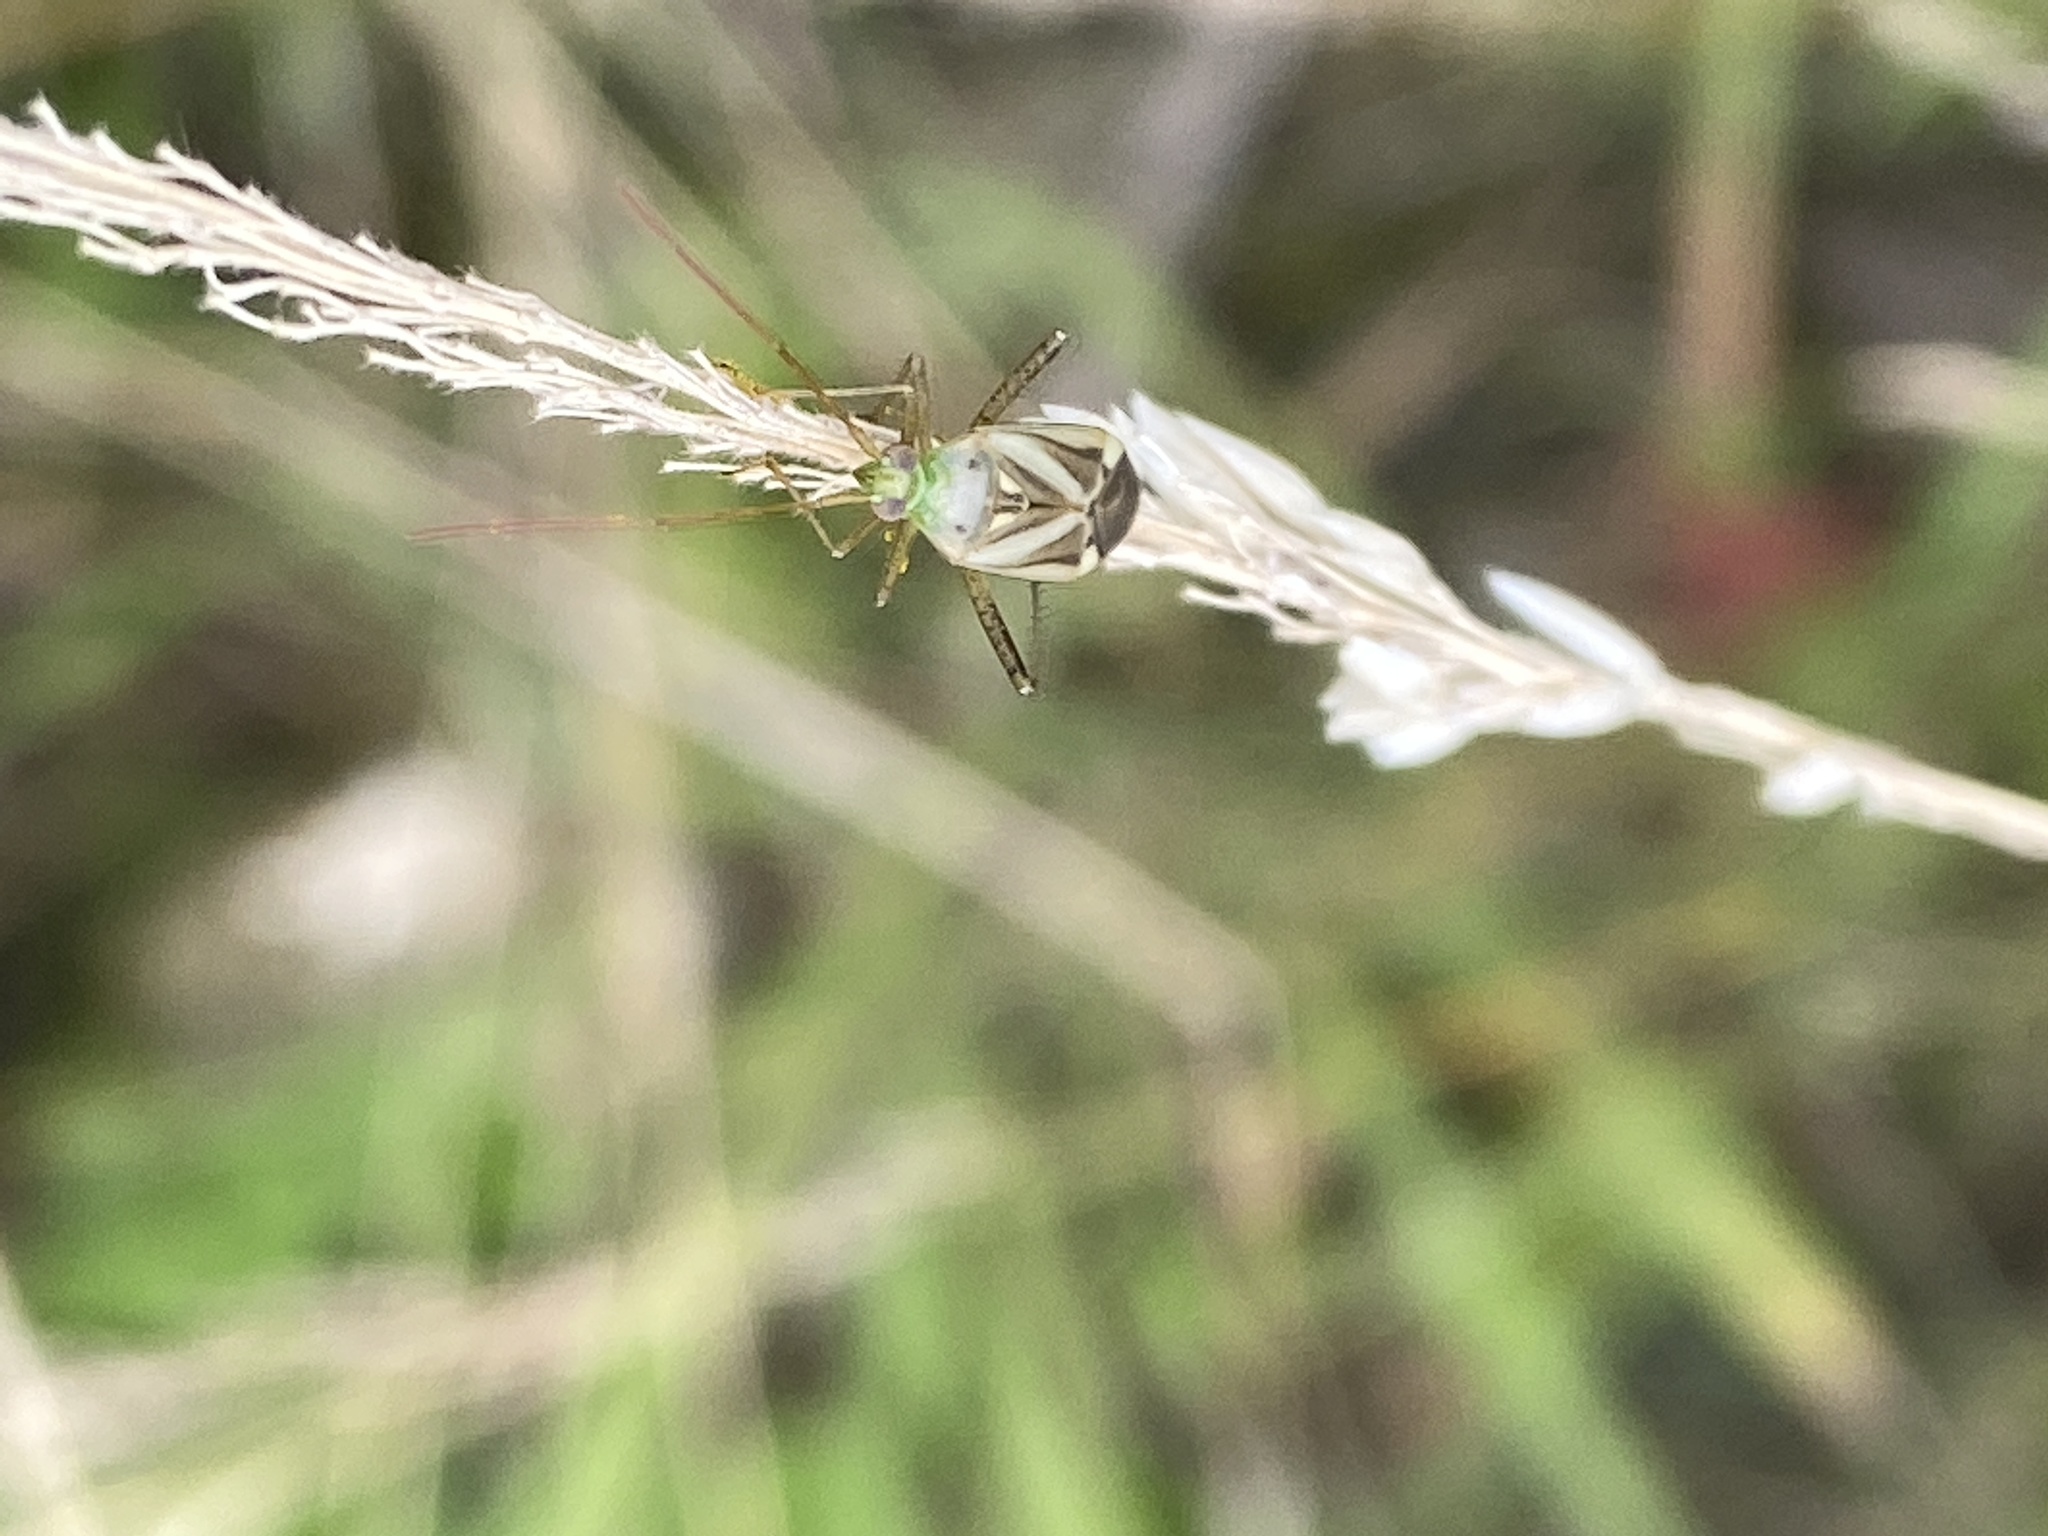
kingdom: Animalia
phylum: Arthropoda
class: Insecta
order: Hemiptera
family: Miridae
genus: Adelphocoris
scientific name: Adelphocoris lineolatus
